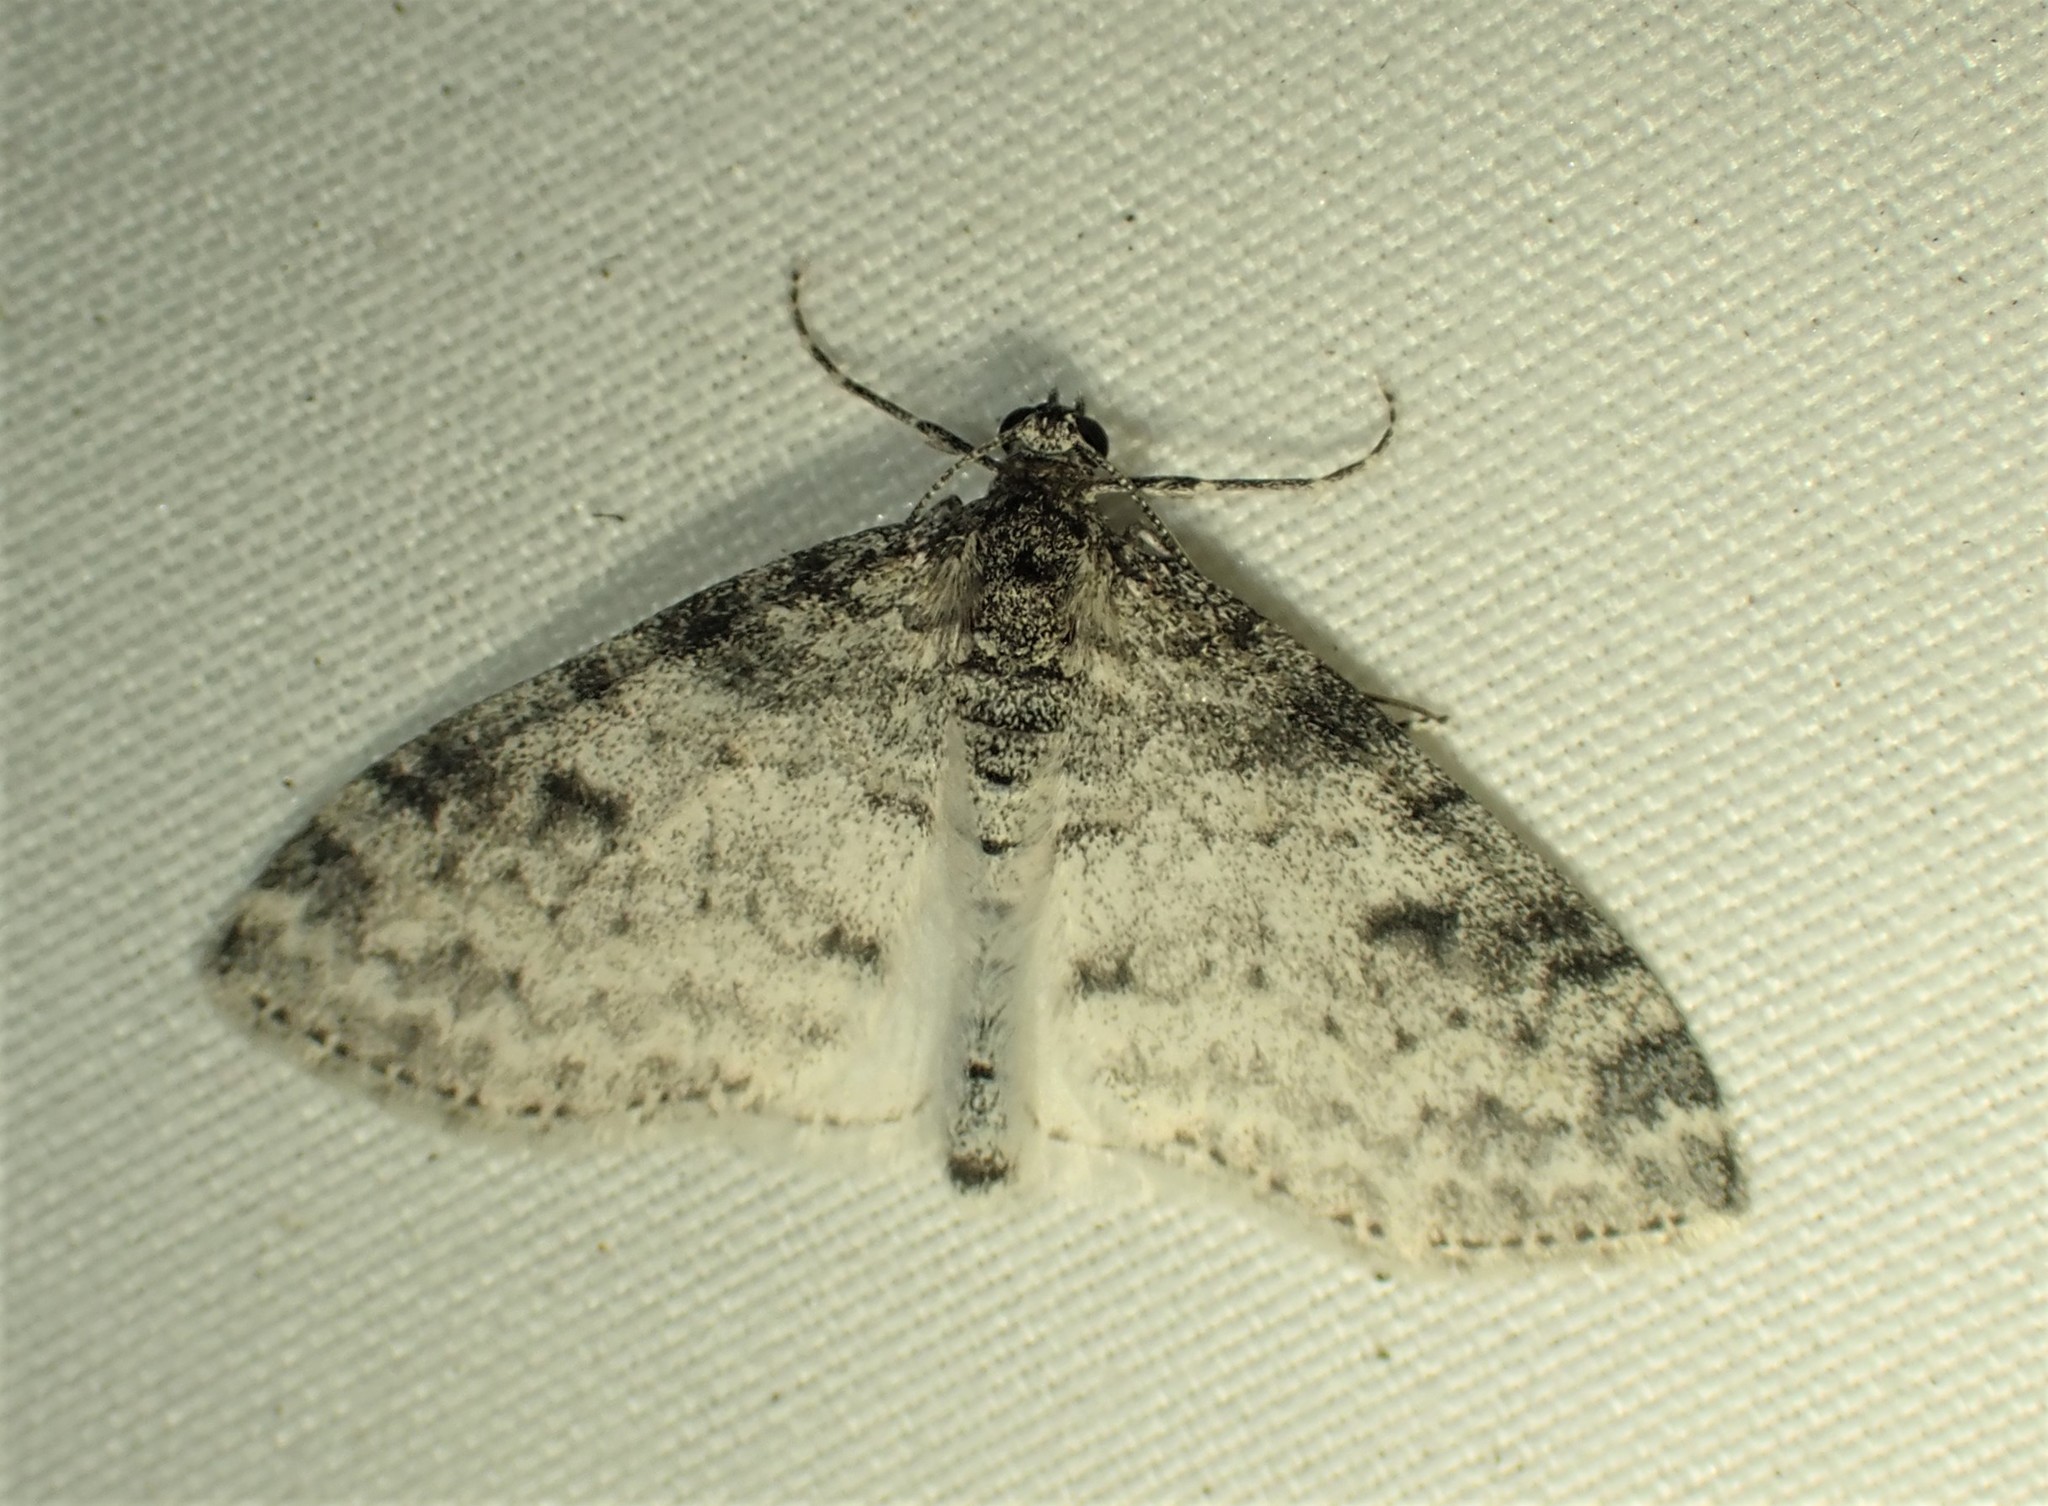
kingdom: Animalia
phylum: Arthropoda
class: Insecta
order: Lepidoptera
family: Geometridae
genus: Lobophora
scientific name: Lobophora nivigerata
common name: Powdered bigwing
